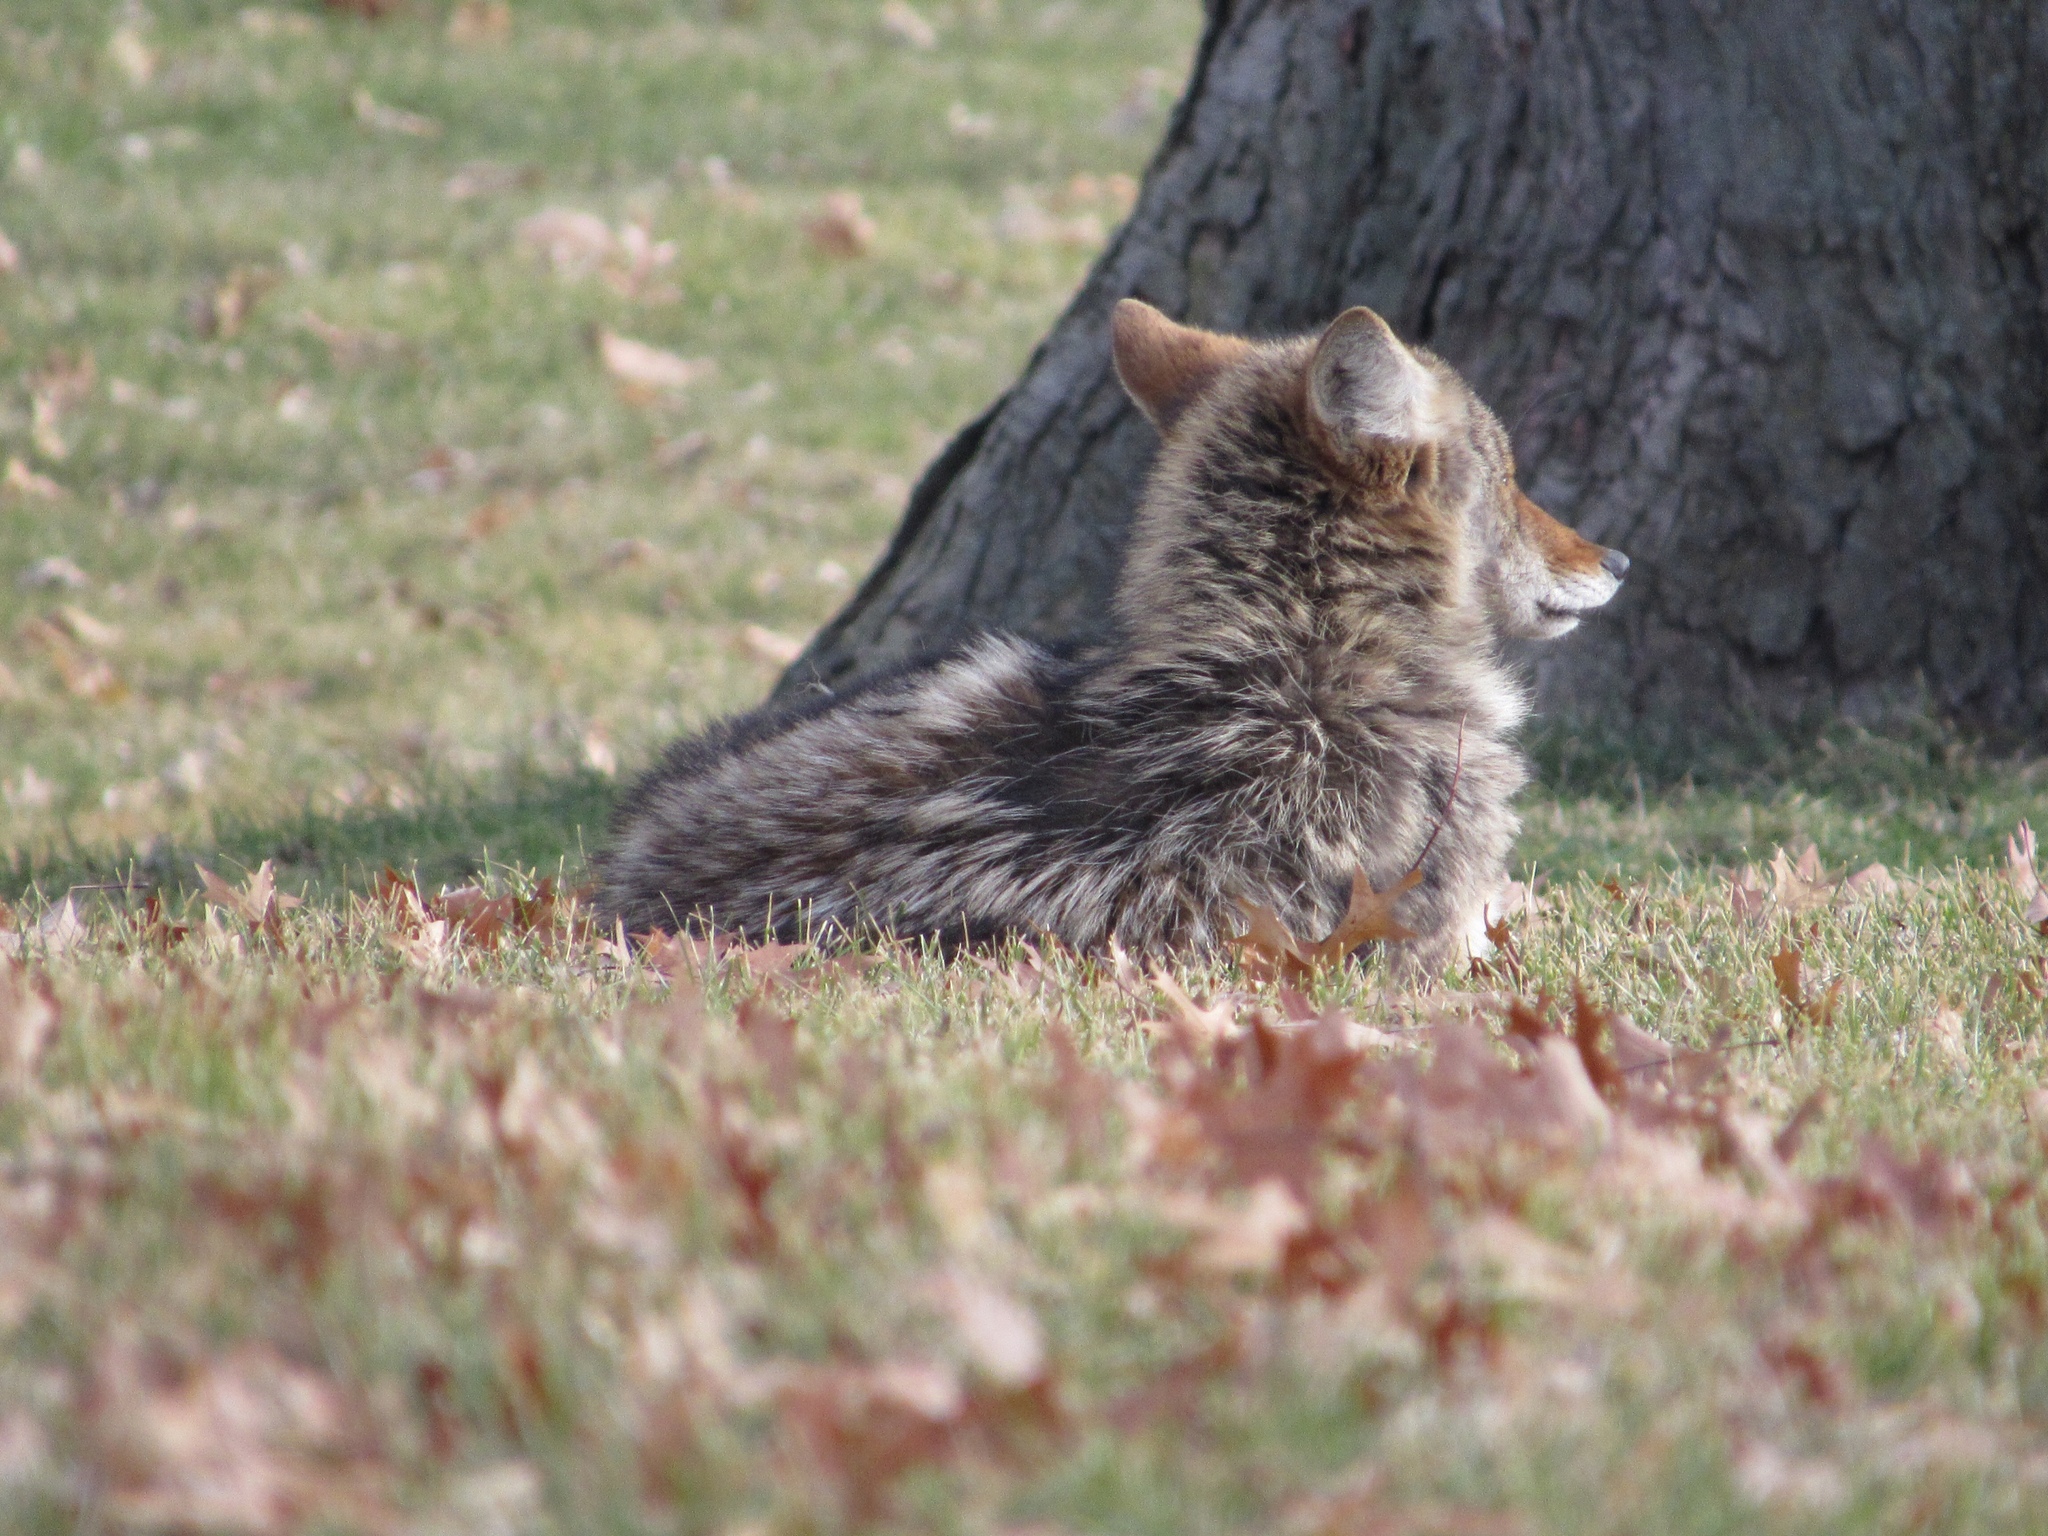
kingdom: Animalia
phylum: Chordata
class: Mammalia
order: Carnivora
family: Canidae
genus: Canis
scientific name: Canis latrans
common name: Coyote
